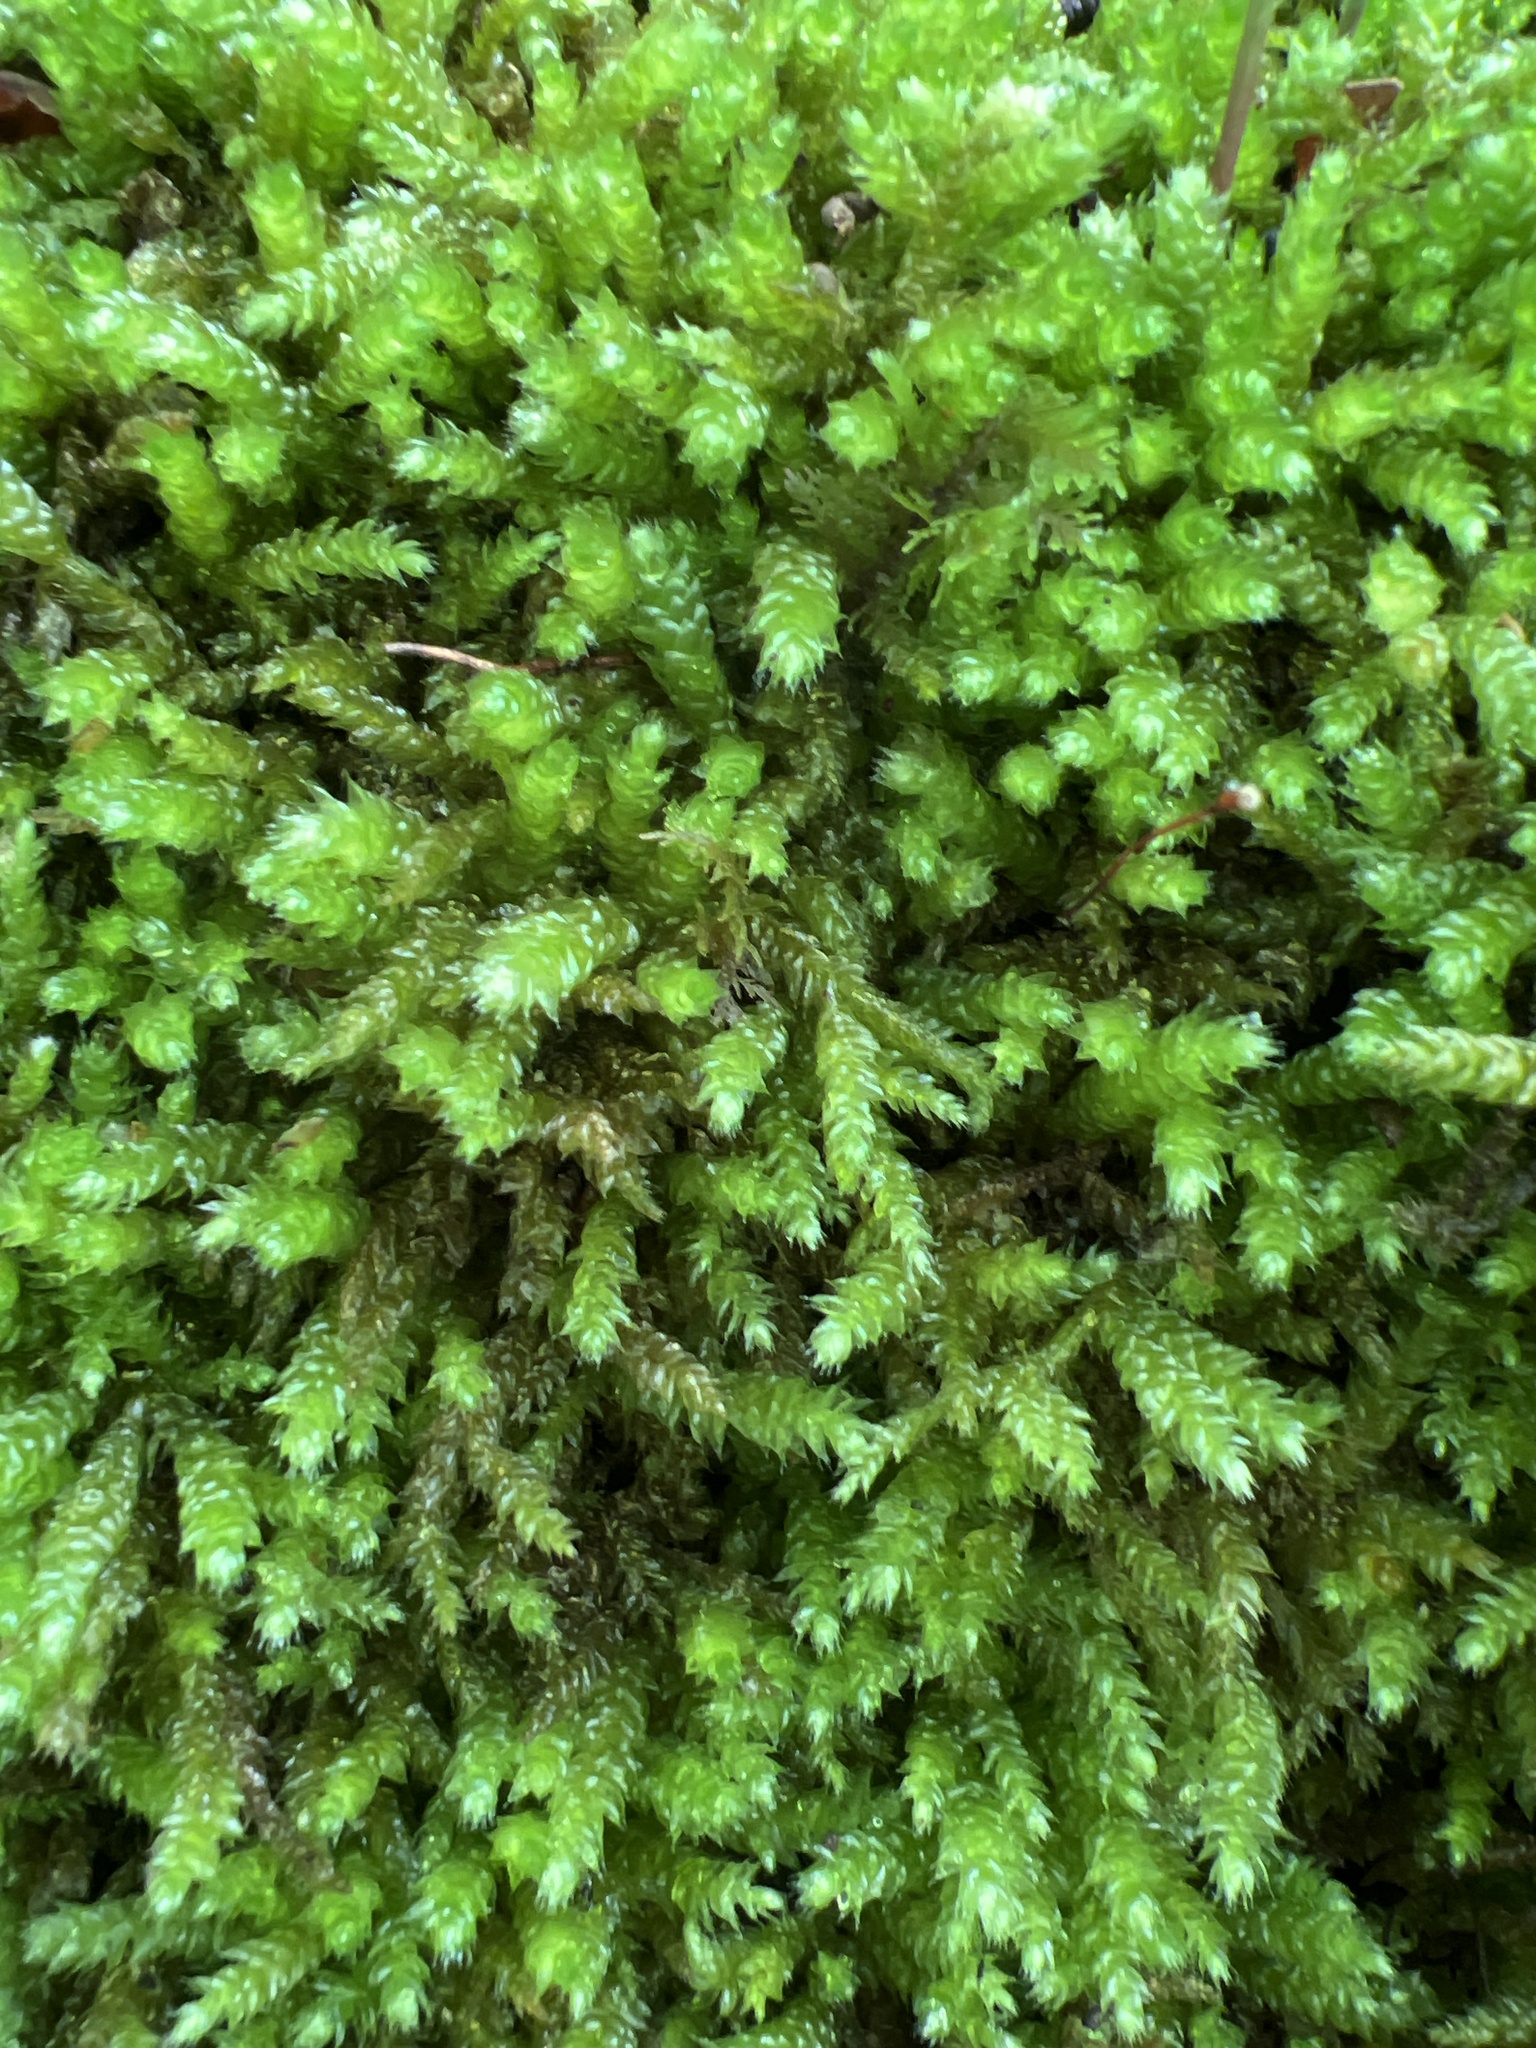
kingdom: Plantae
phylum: Bryophyta
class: Bryopsida
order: Hypnales
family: Brachytheciaceae
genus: Bryoandersonia
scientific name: Bryoandersonia illecebra
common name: Spoon-leaved moss
